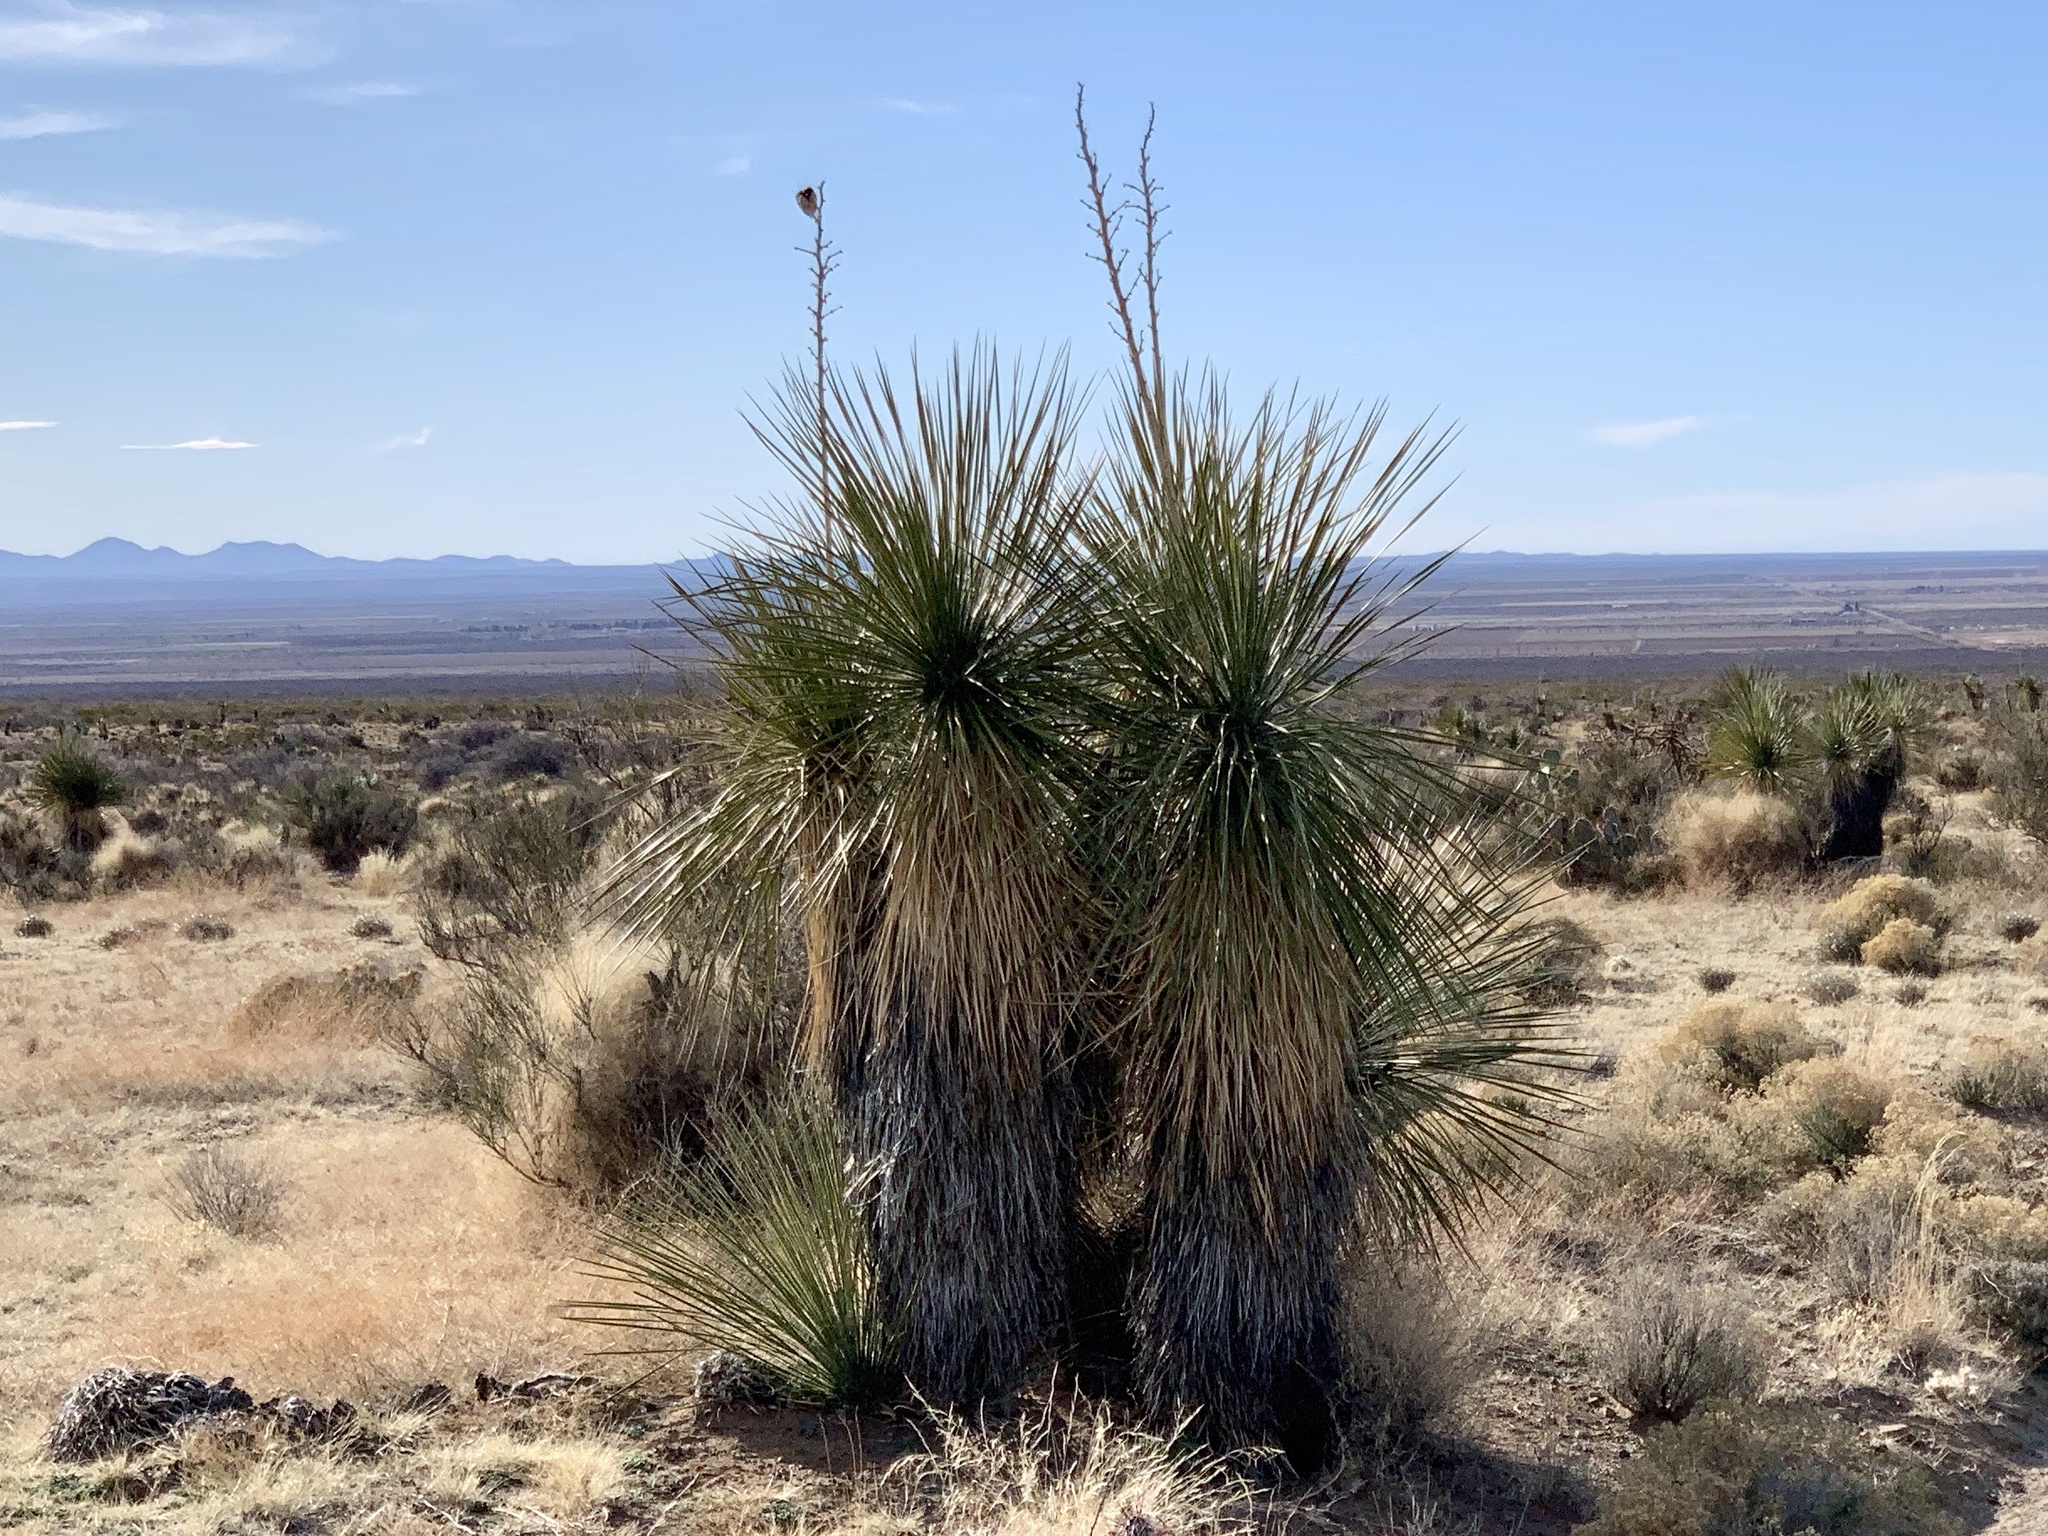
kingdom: Plantae
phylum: Tracheophyta
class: Liliopsida
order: Asparagales
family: Asparagaceae
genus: Yucca
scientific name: Yucca elata
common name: Palmella
